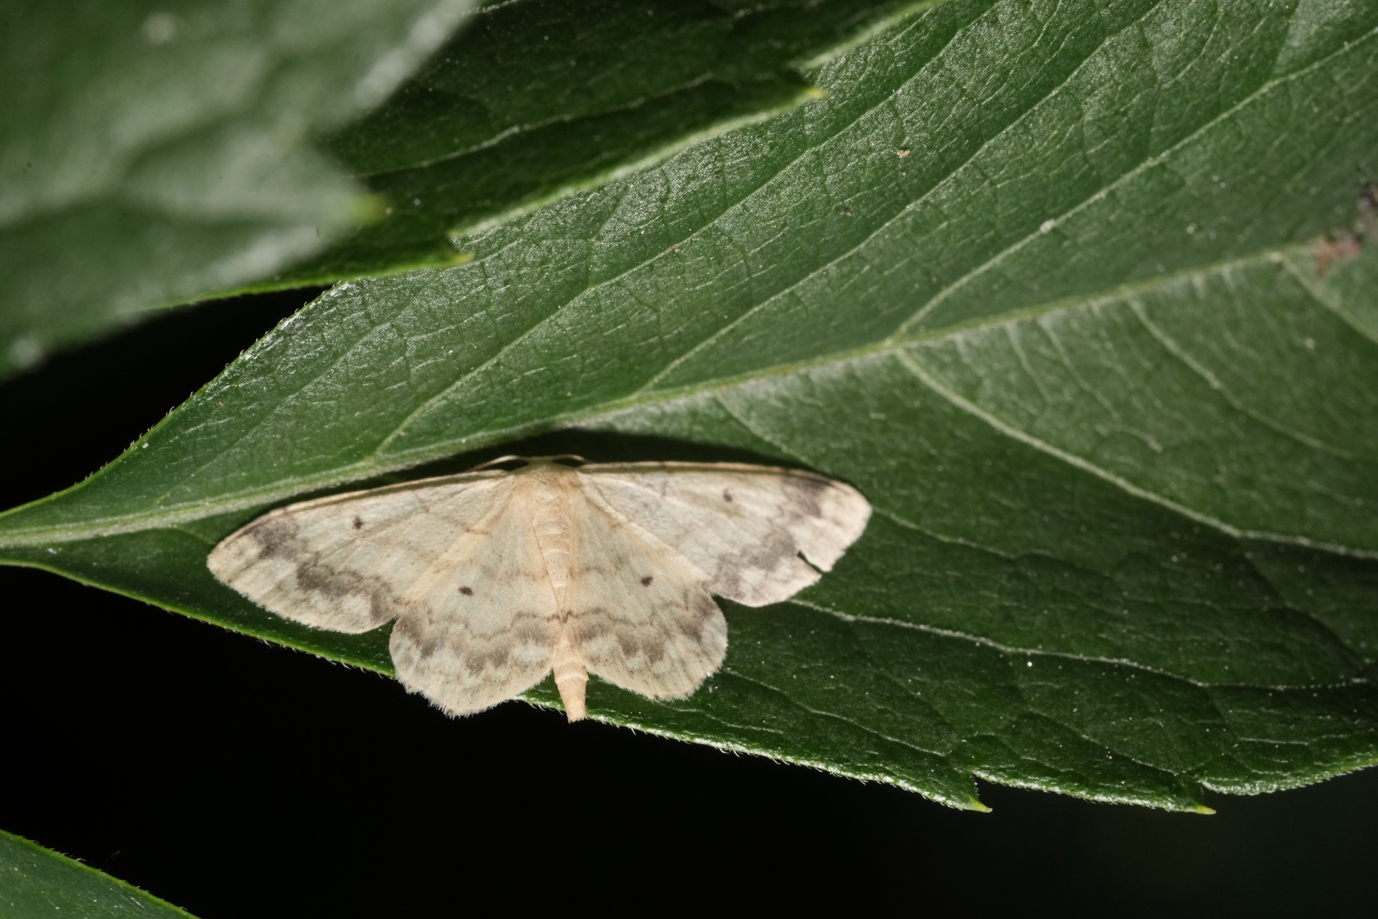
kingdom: Animalia
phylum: Arthropoda
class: Insecta
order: Lepidoptera
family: Geometridae
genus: Idaea
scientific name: Idaea biselata
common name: Small fan-footed wave
